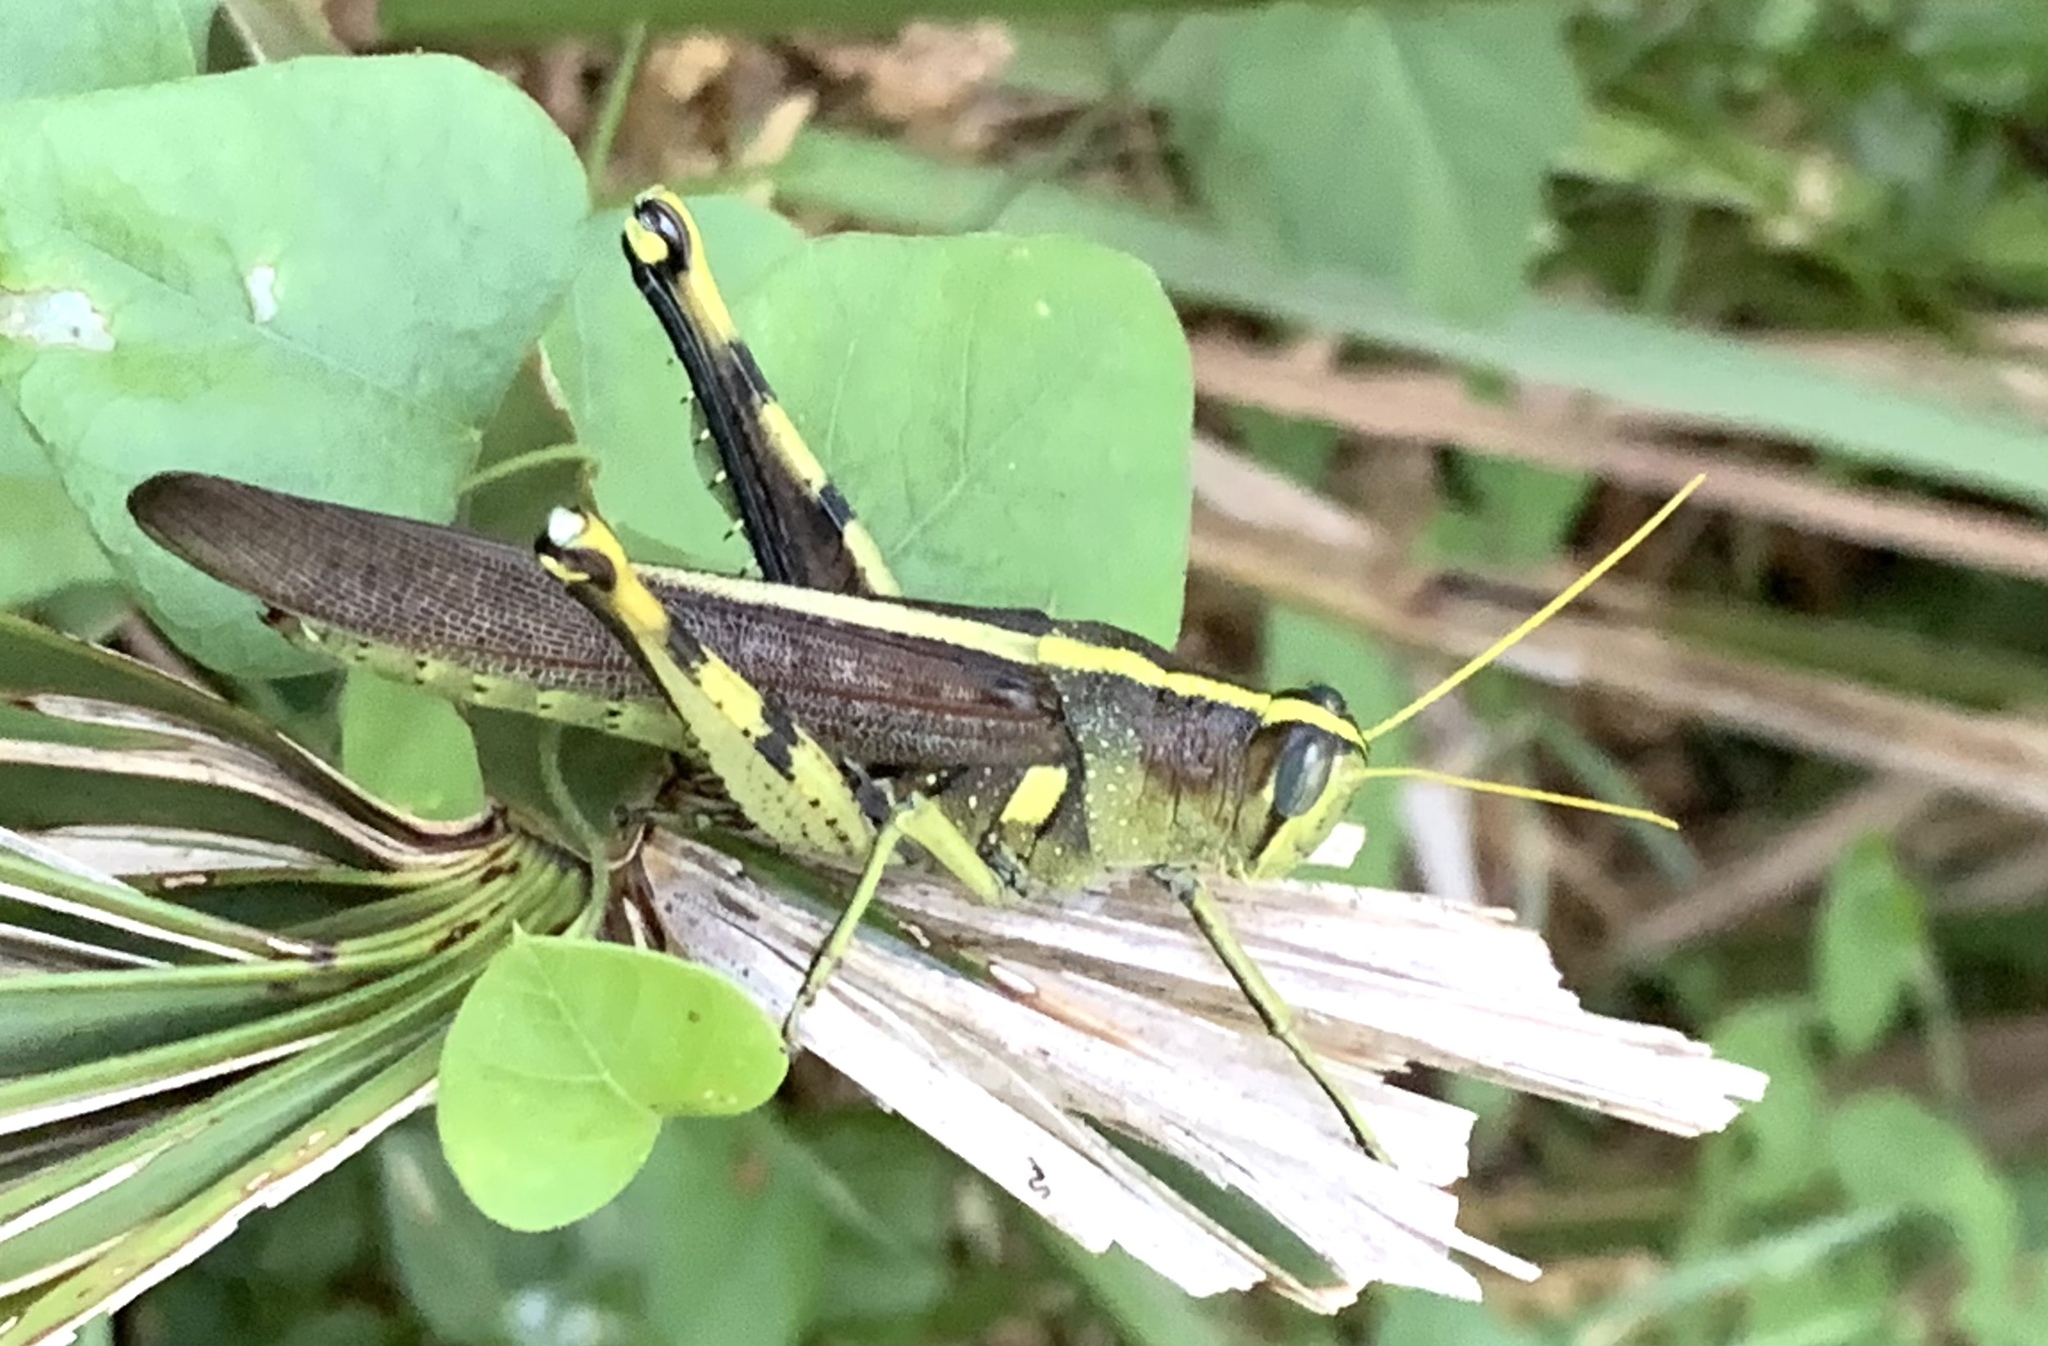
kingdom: Animalia
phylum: Arthropoda
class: Insecta
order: Orthoptera
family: Acrididae
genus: Schistocerca
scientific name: Schistocerca obscura
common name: Obscure bird grasshopper
